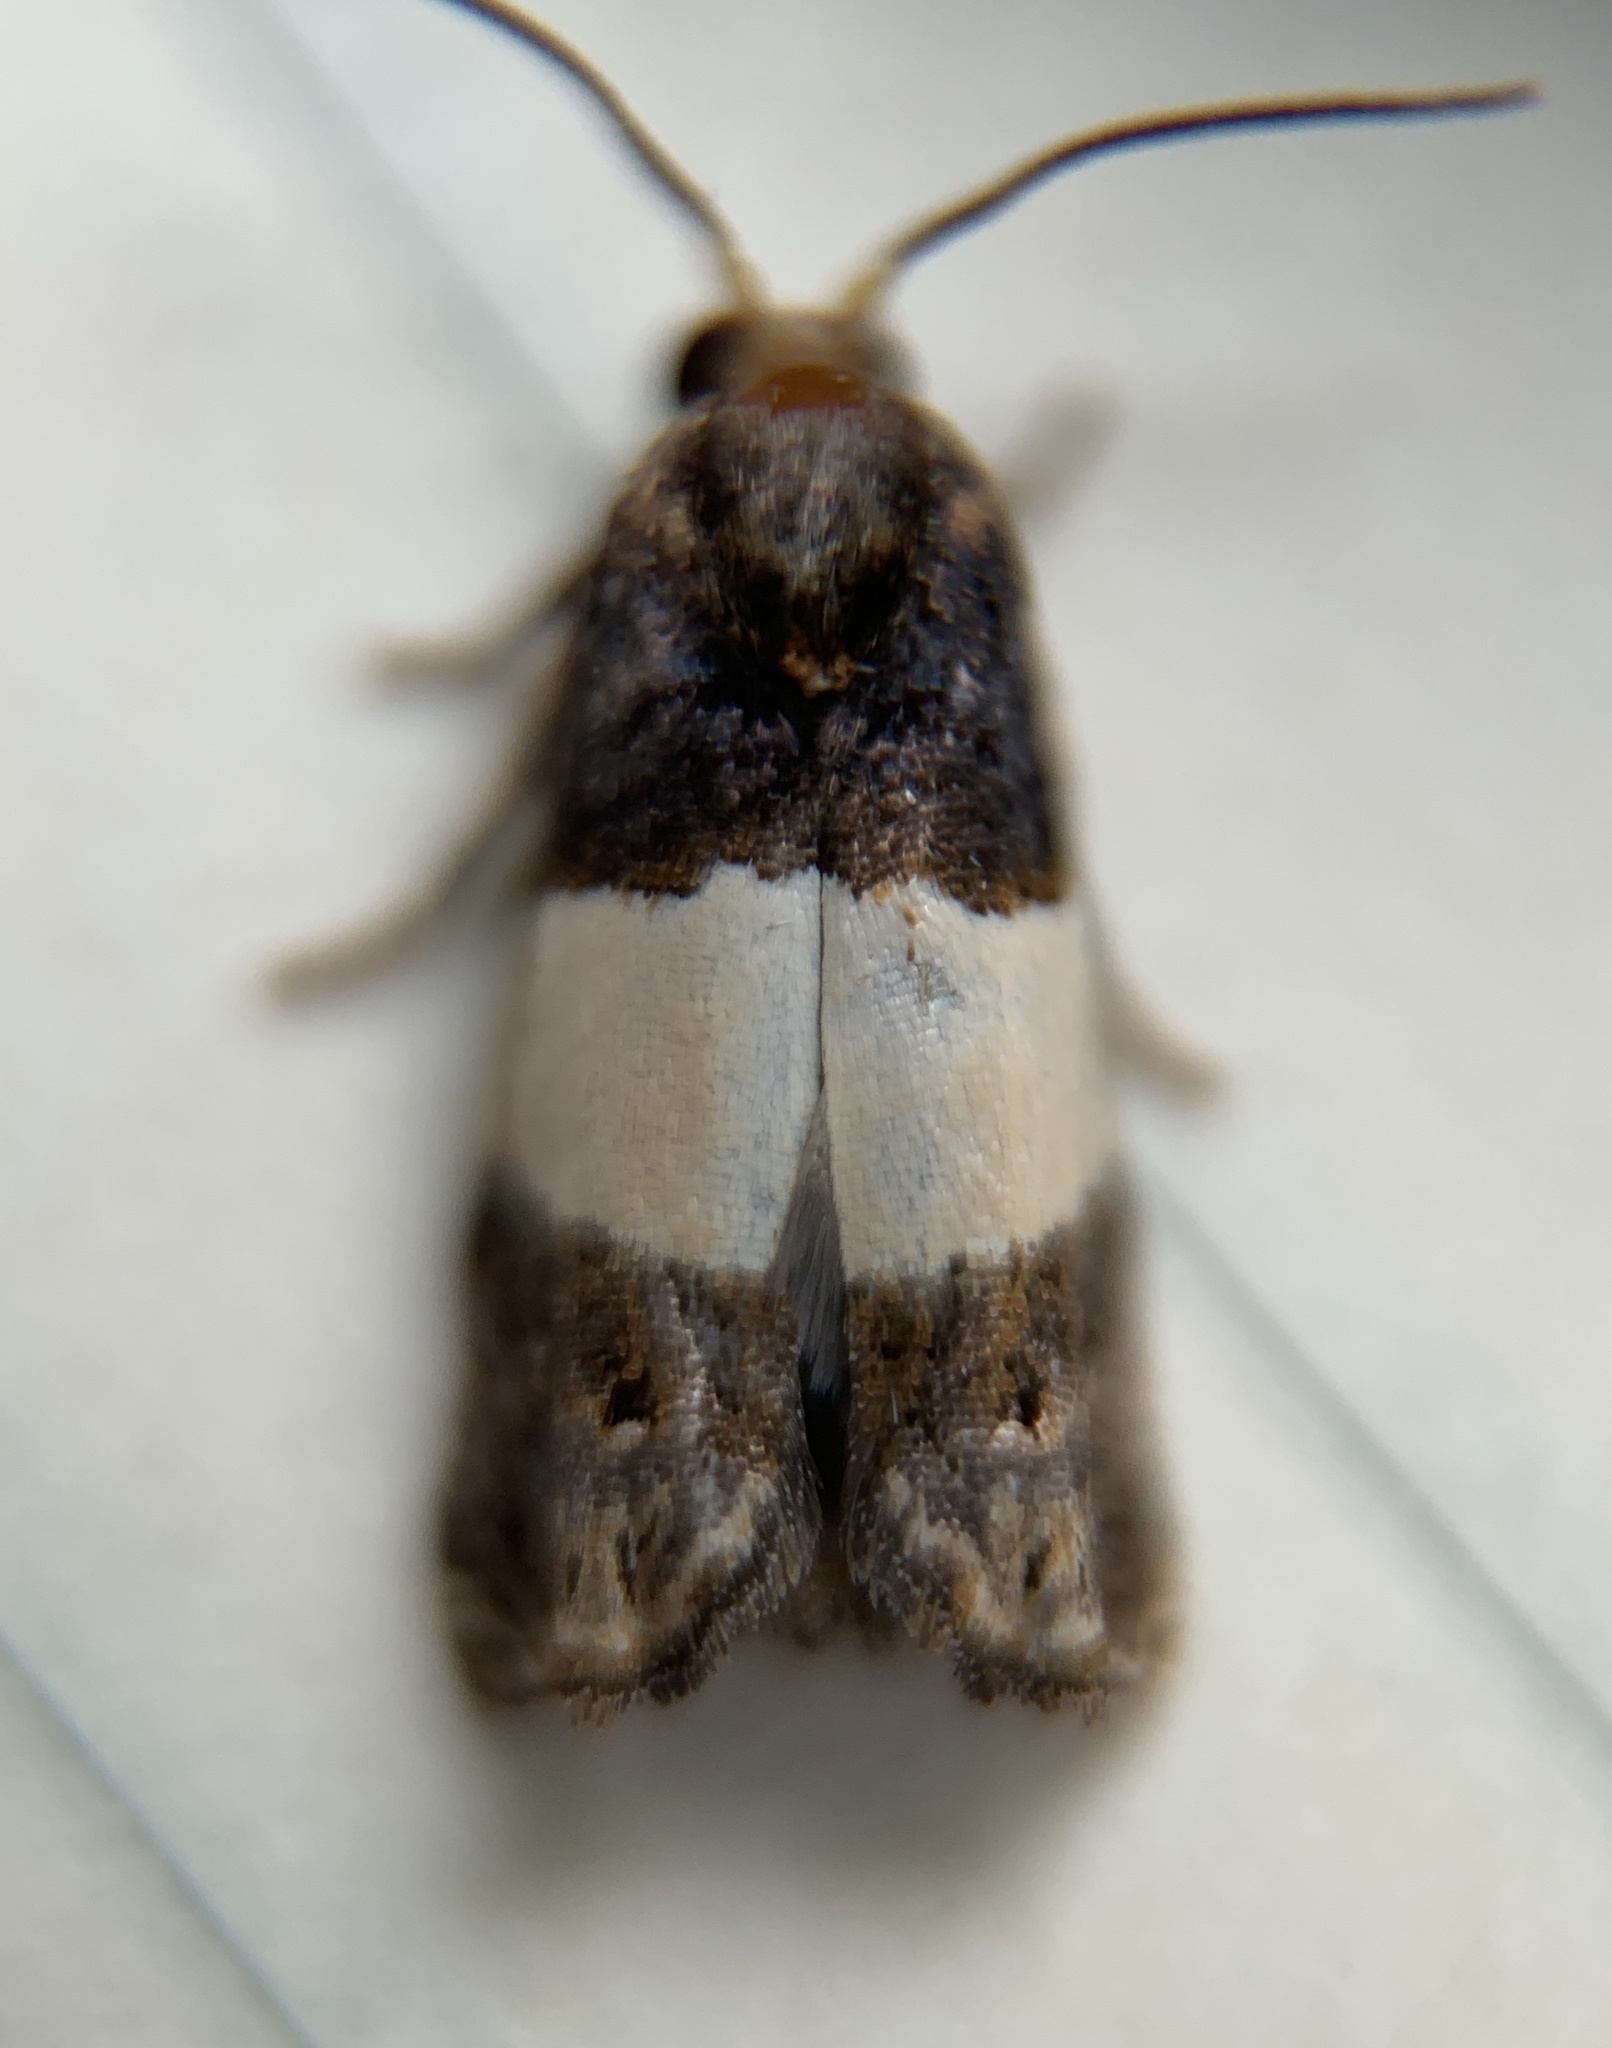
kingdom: Animalia
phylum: Arthropoda
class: Insecta
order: Lepidoptera
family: Tortricidae
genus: Epiblema
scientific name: Epiblema tripartitana
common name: Three-parted epiblema moth
